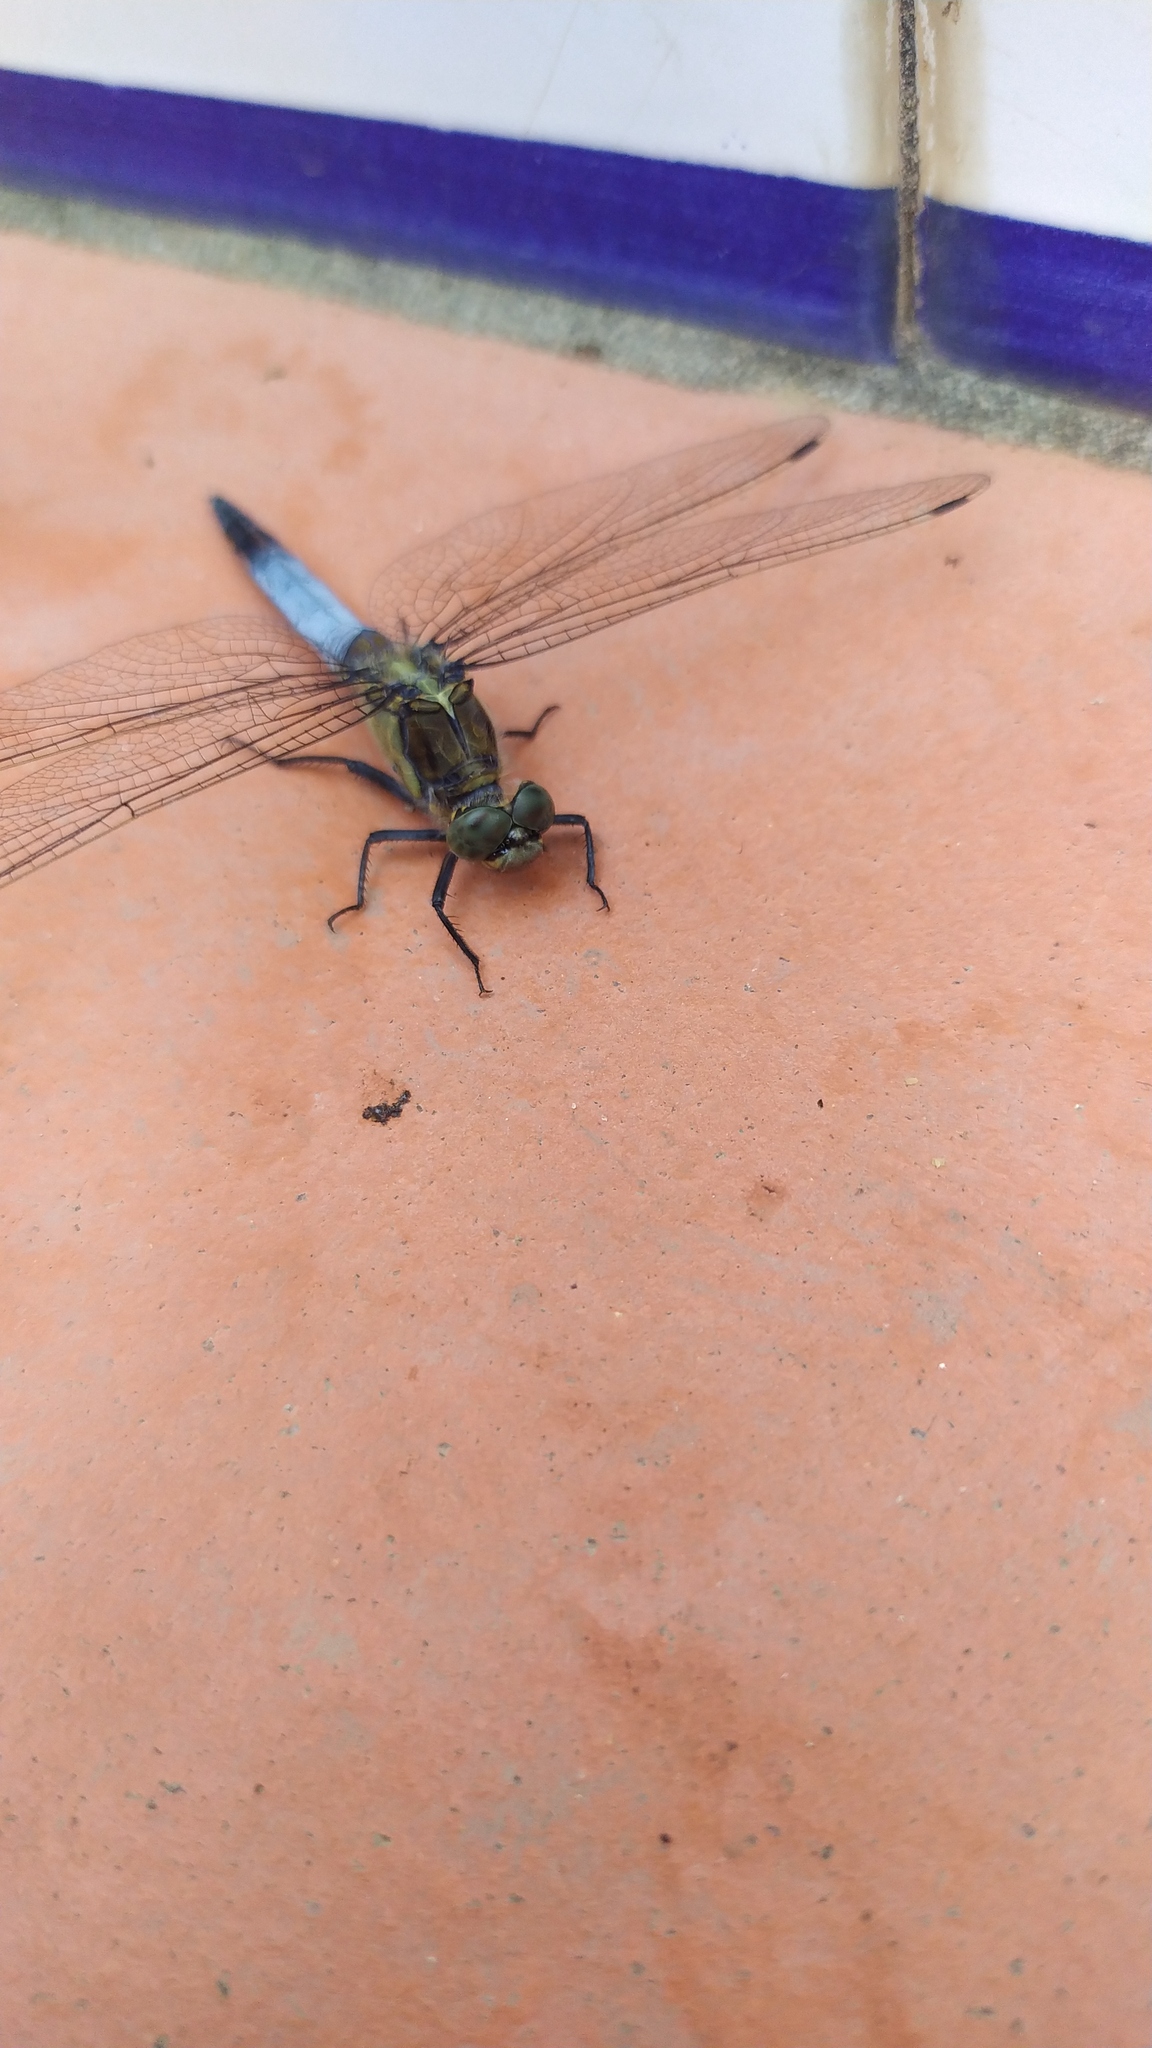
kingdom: Animalia
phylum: Arthropoda
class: Insecta
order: Odonata
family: Libellulidae
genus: Orthetrum
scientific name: Orthetrum cancellatum
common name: Black-tailed skimmer
